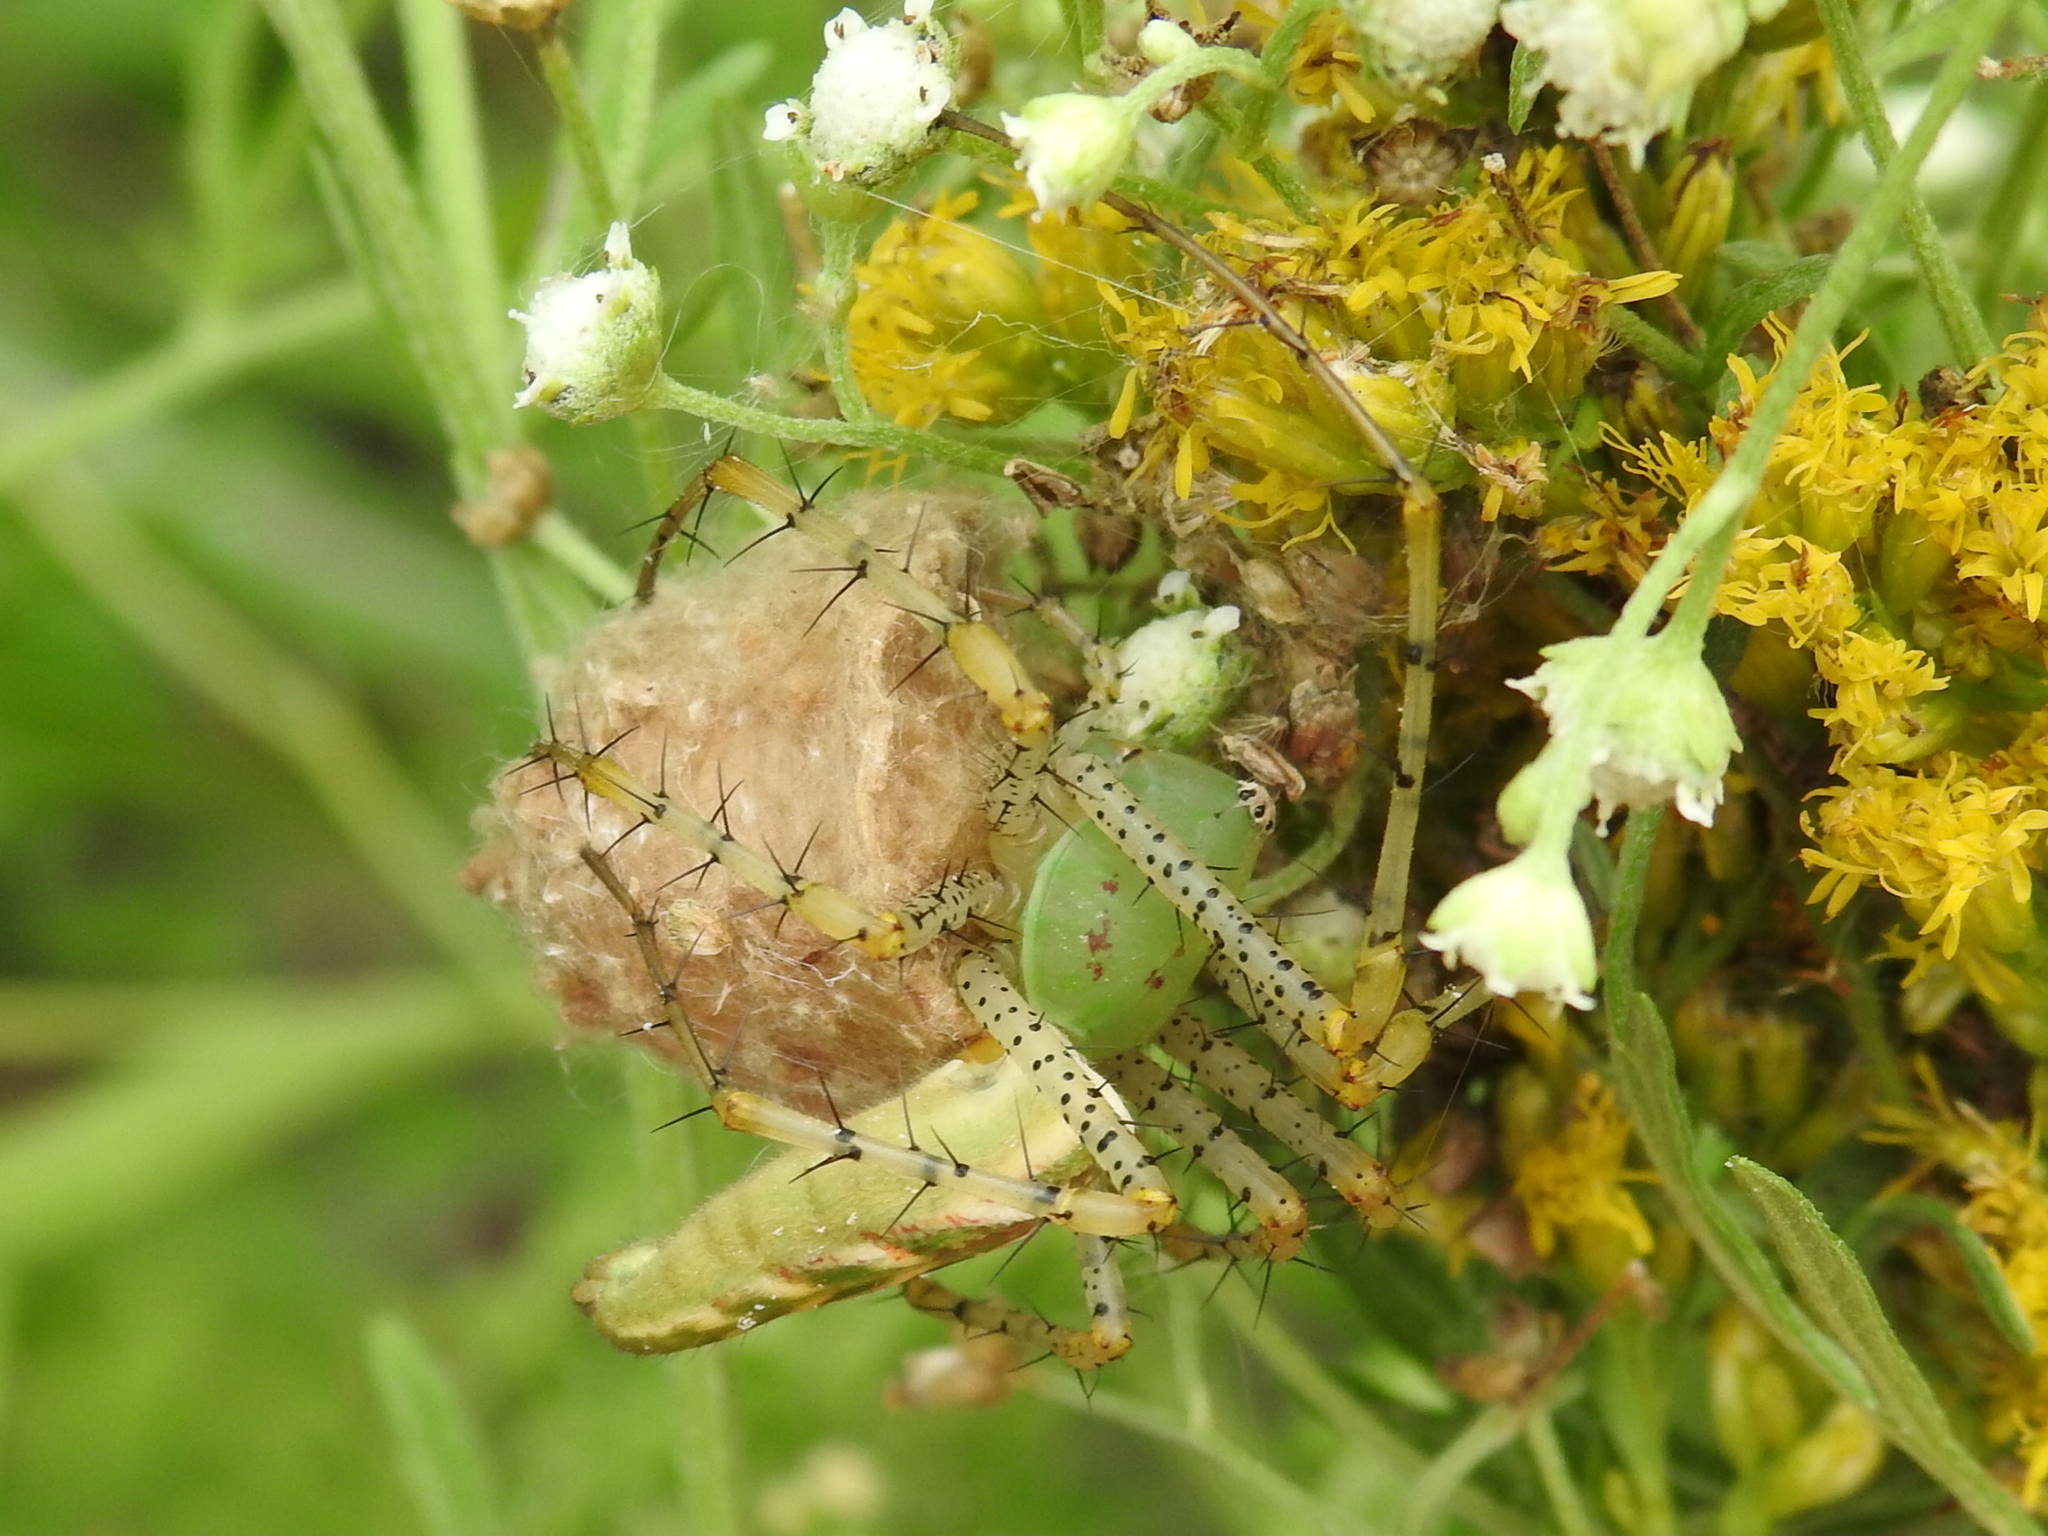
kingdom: Animalia
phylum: Arthropoda
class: Arachnida
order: Araneae
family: Oxyopidae
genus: Peucetia
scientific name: Peucetia viridans
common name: Lynx spiders
